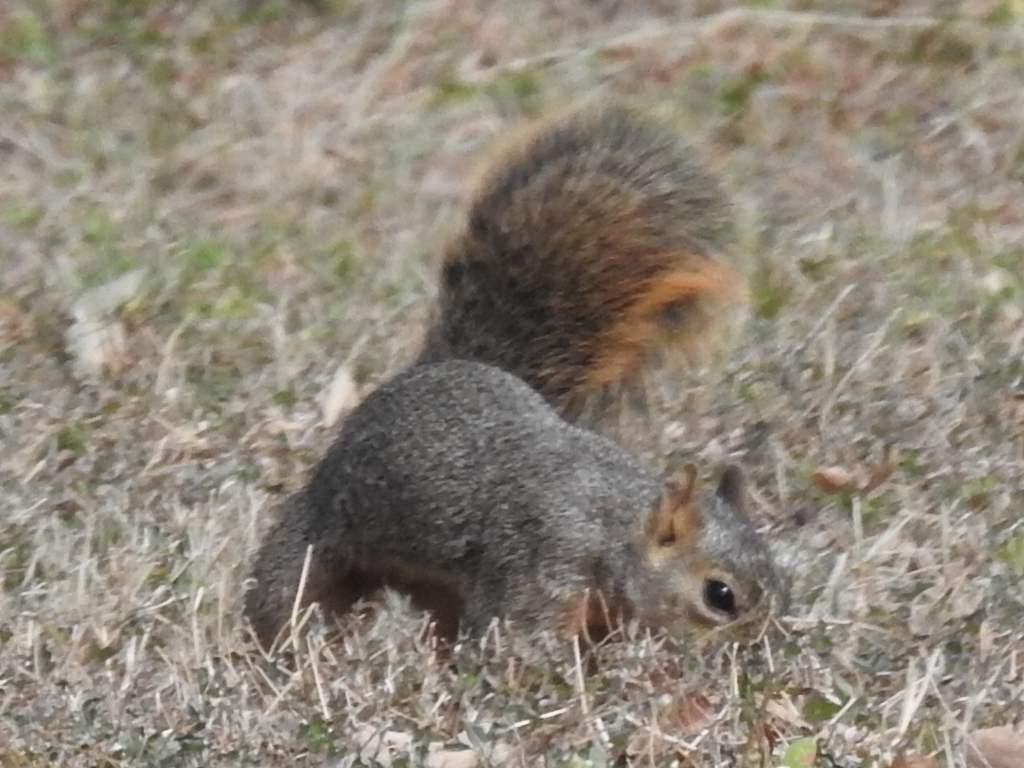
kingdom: Animalia
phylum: Chordata
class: Mammalia
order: Rodentia
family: Sciuridae
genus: Sciurus
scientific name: Sciurus niger
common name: Fox squirrel
